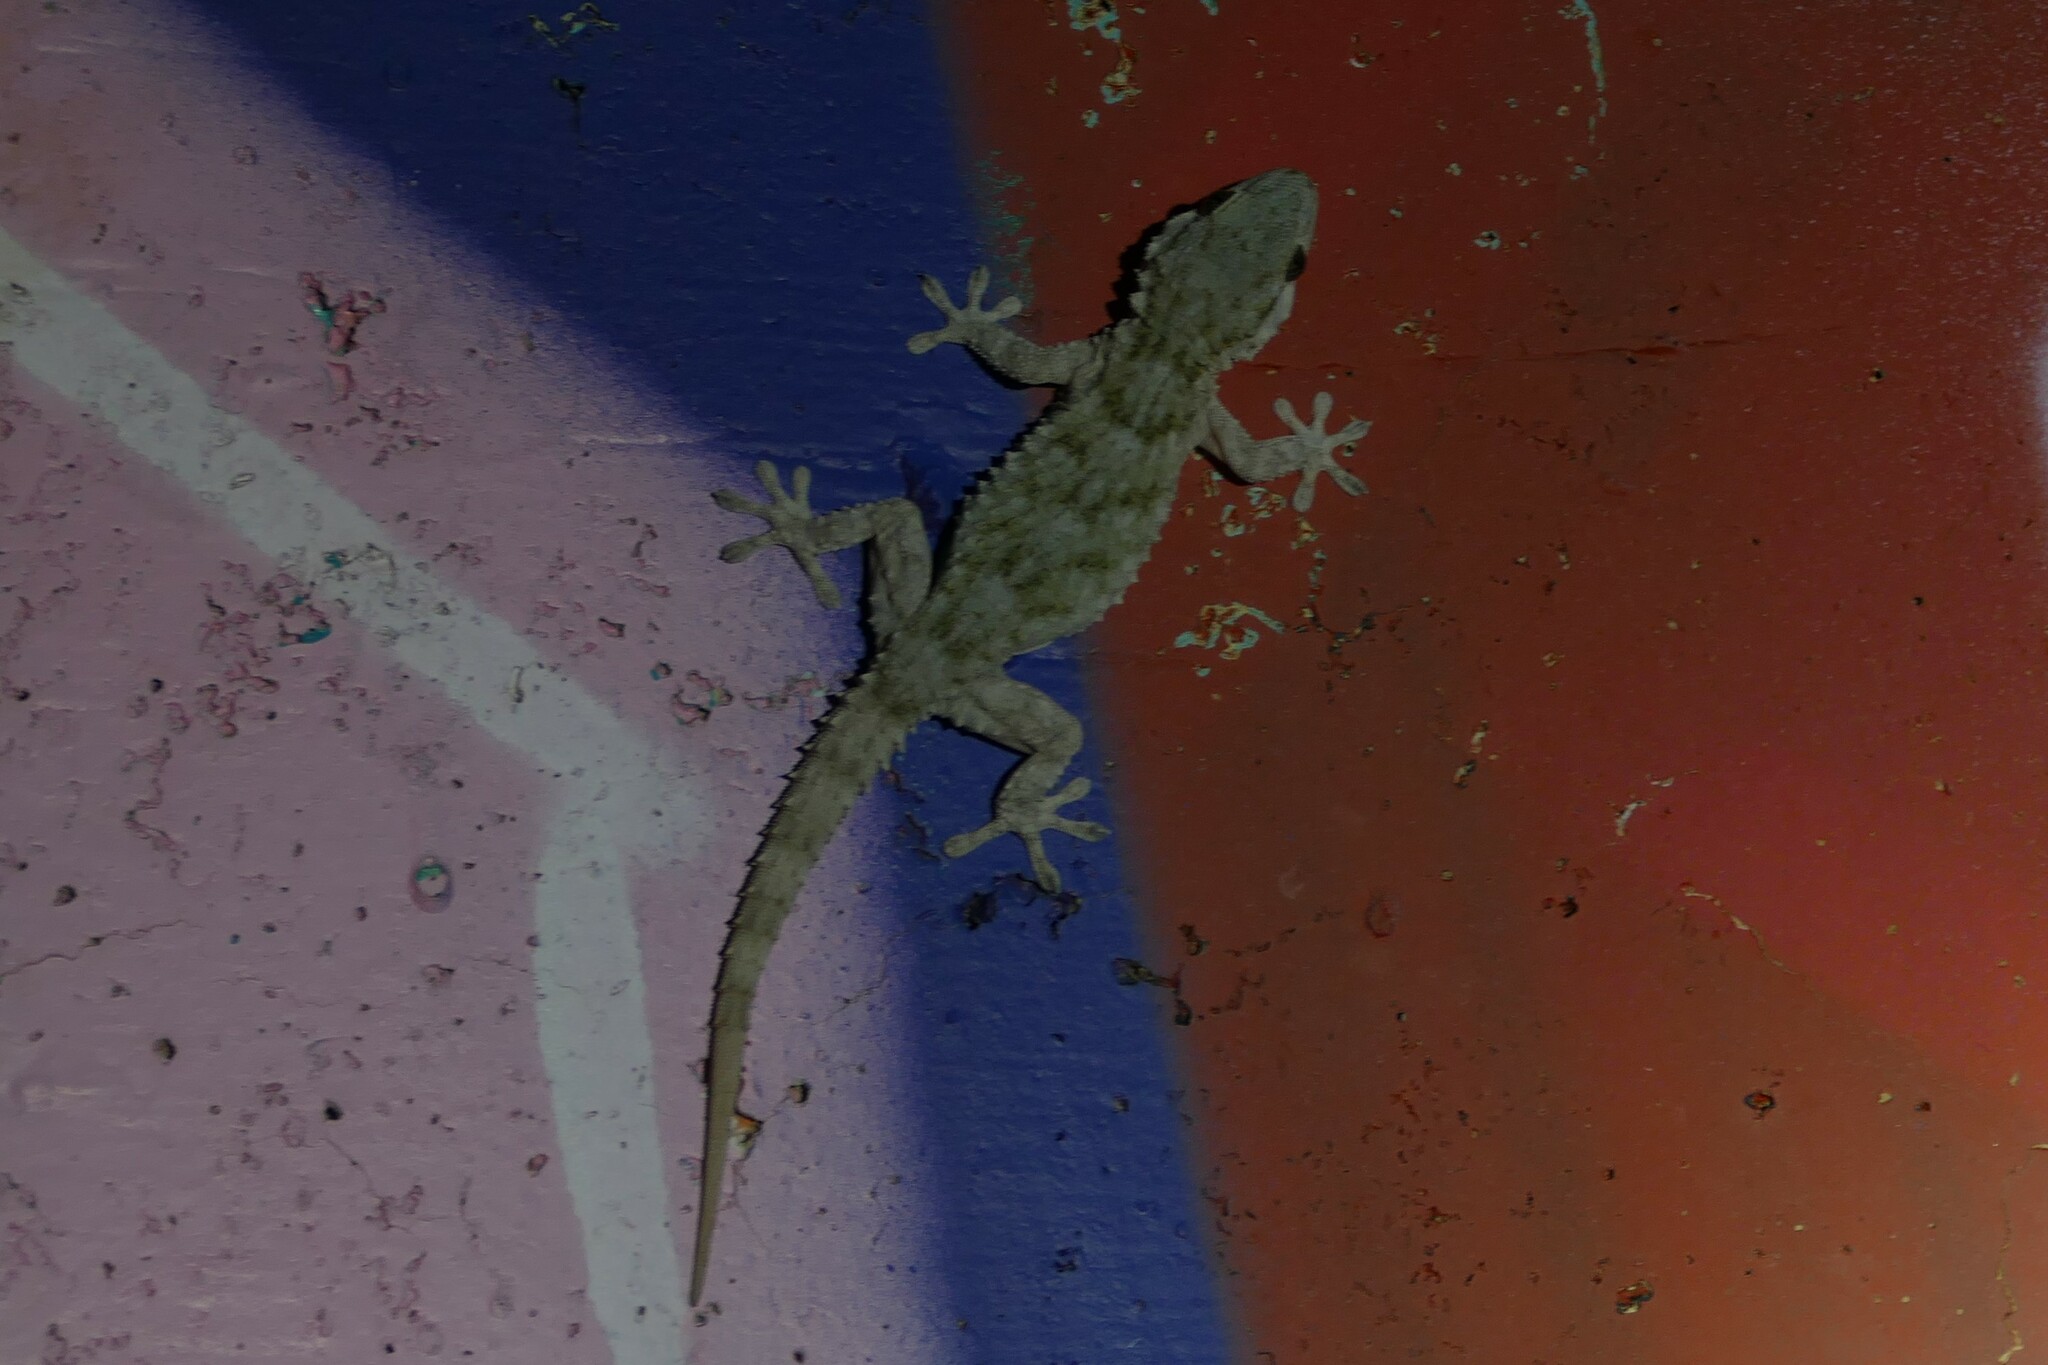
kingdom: Animalia
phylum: Chordata
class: Squamata
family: Phyllodactylidae
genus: Tarentola
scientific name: Tarentola mauritanica
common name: Moorish gecko
